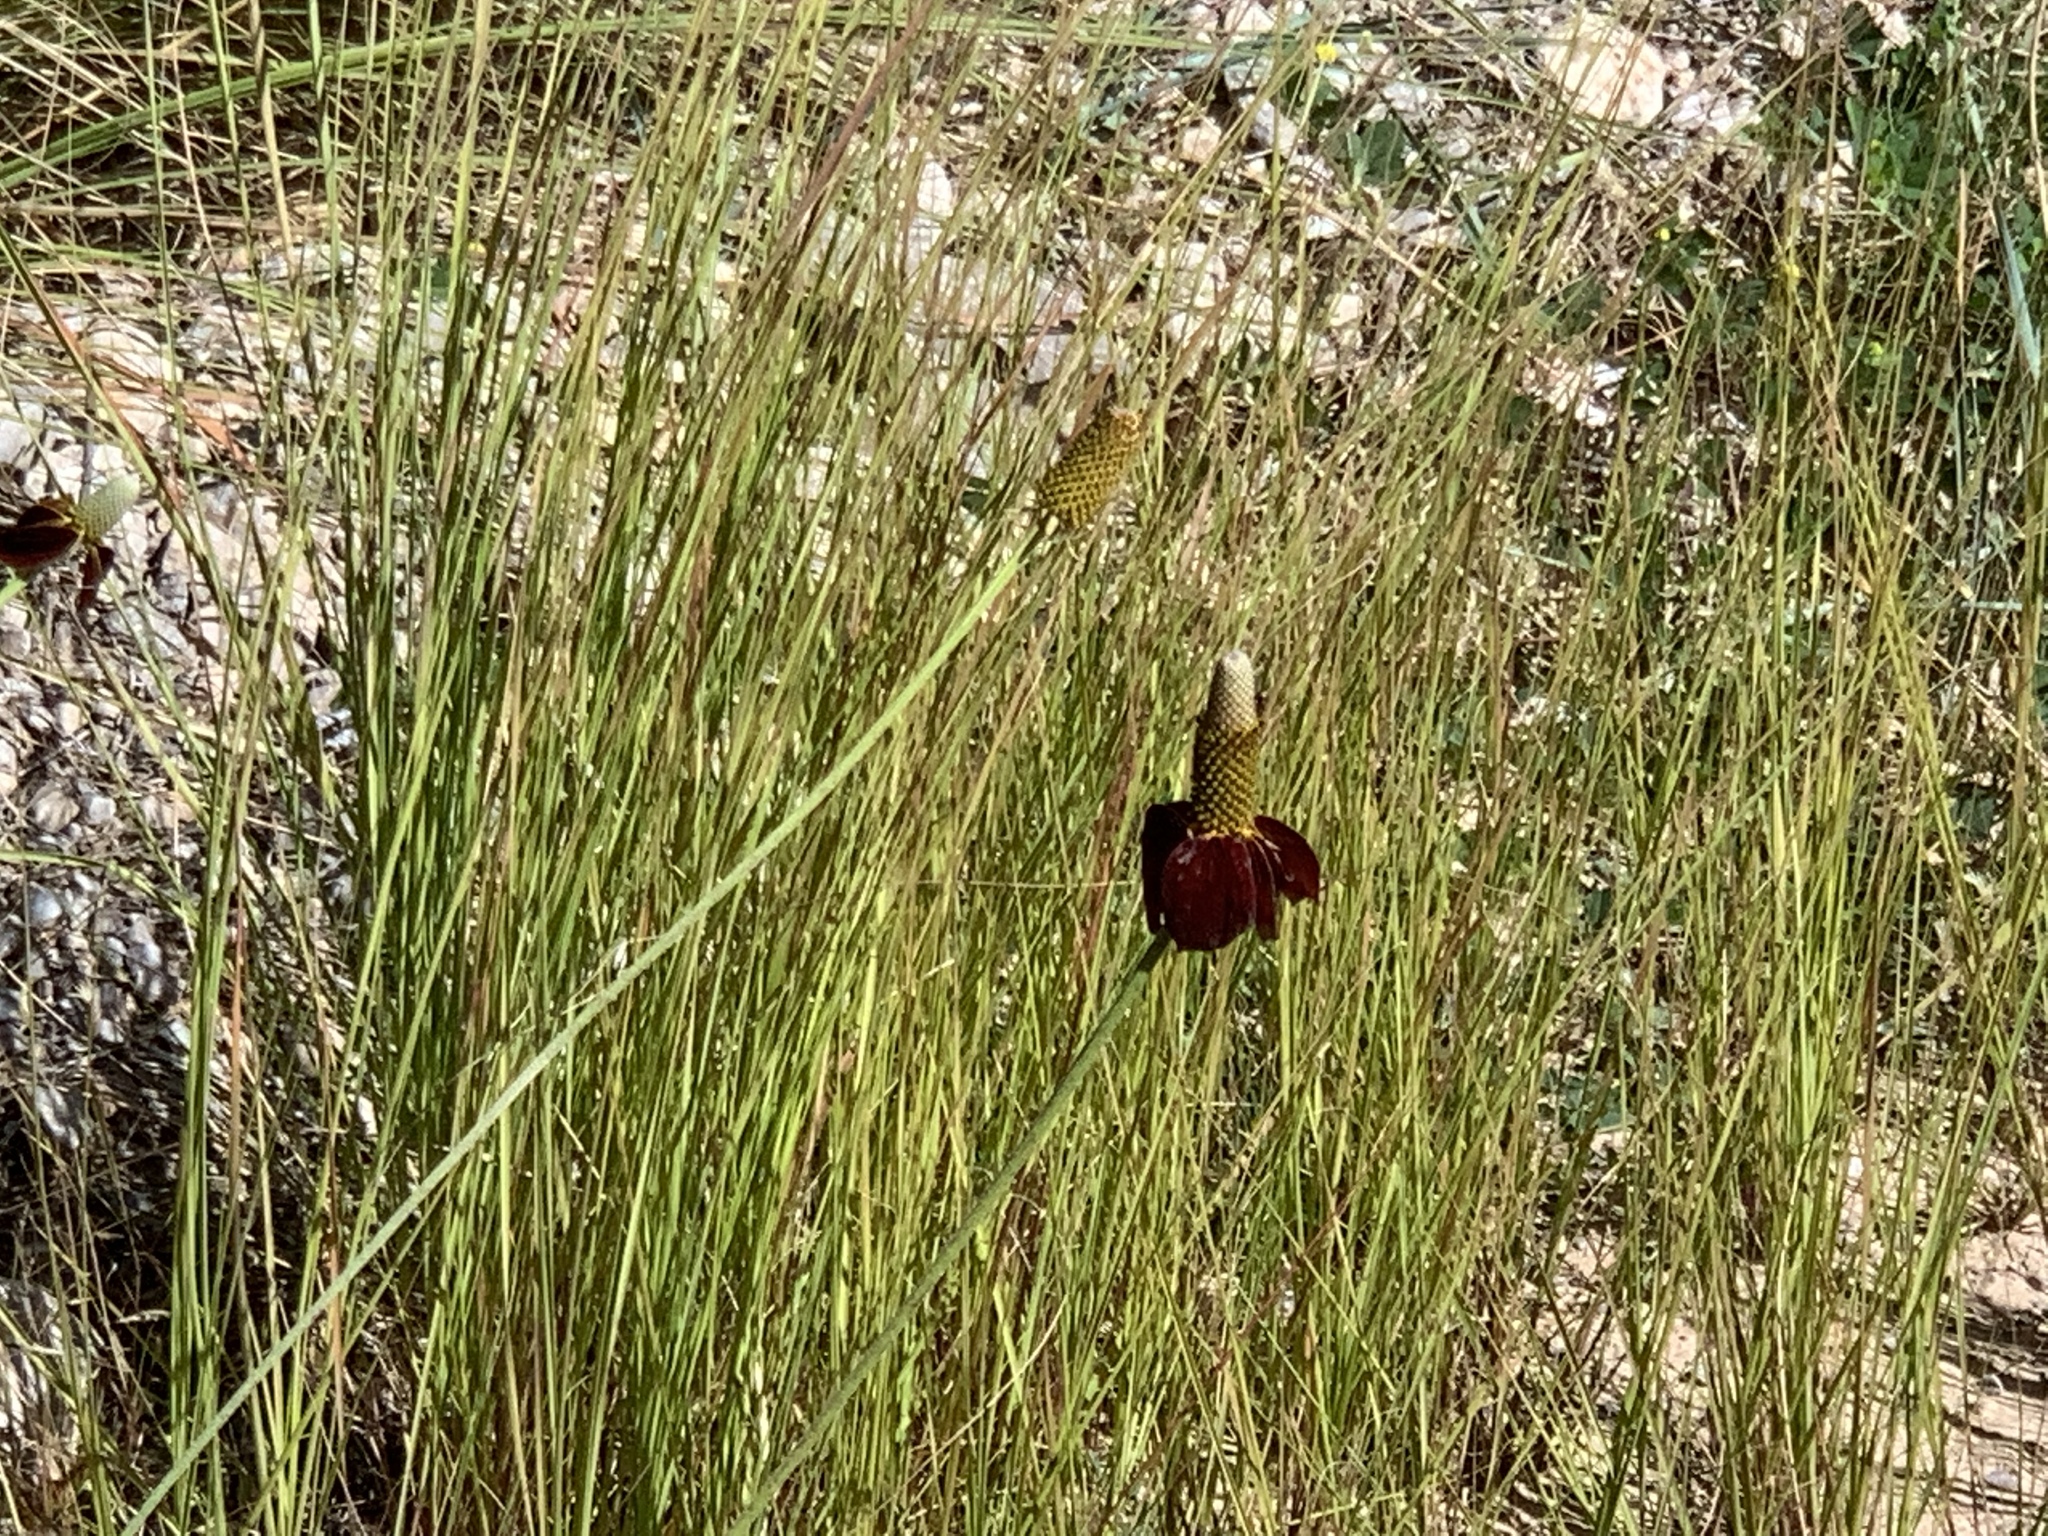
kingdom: Plantae
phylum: Tracheophyta
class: Magnoliopsida
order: Asterales
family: Asteraceae
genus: Ratibida
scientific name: Ratibida columnifera
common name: Prairie coneflower
